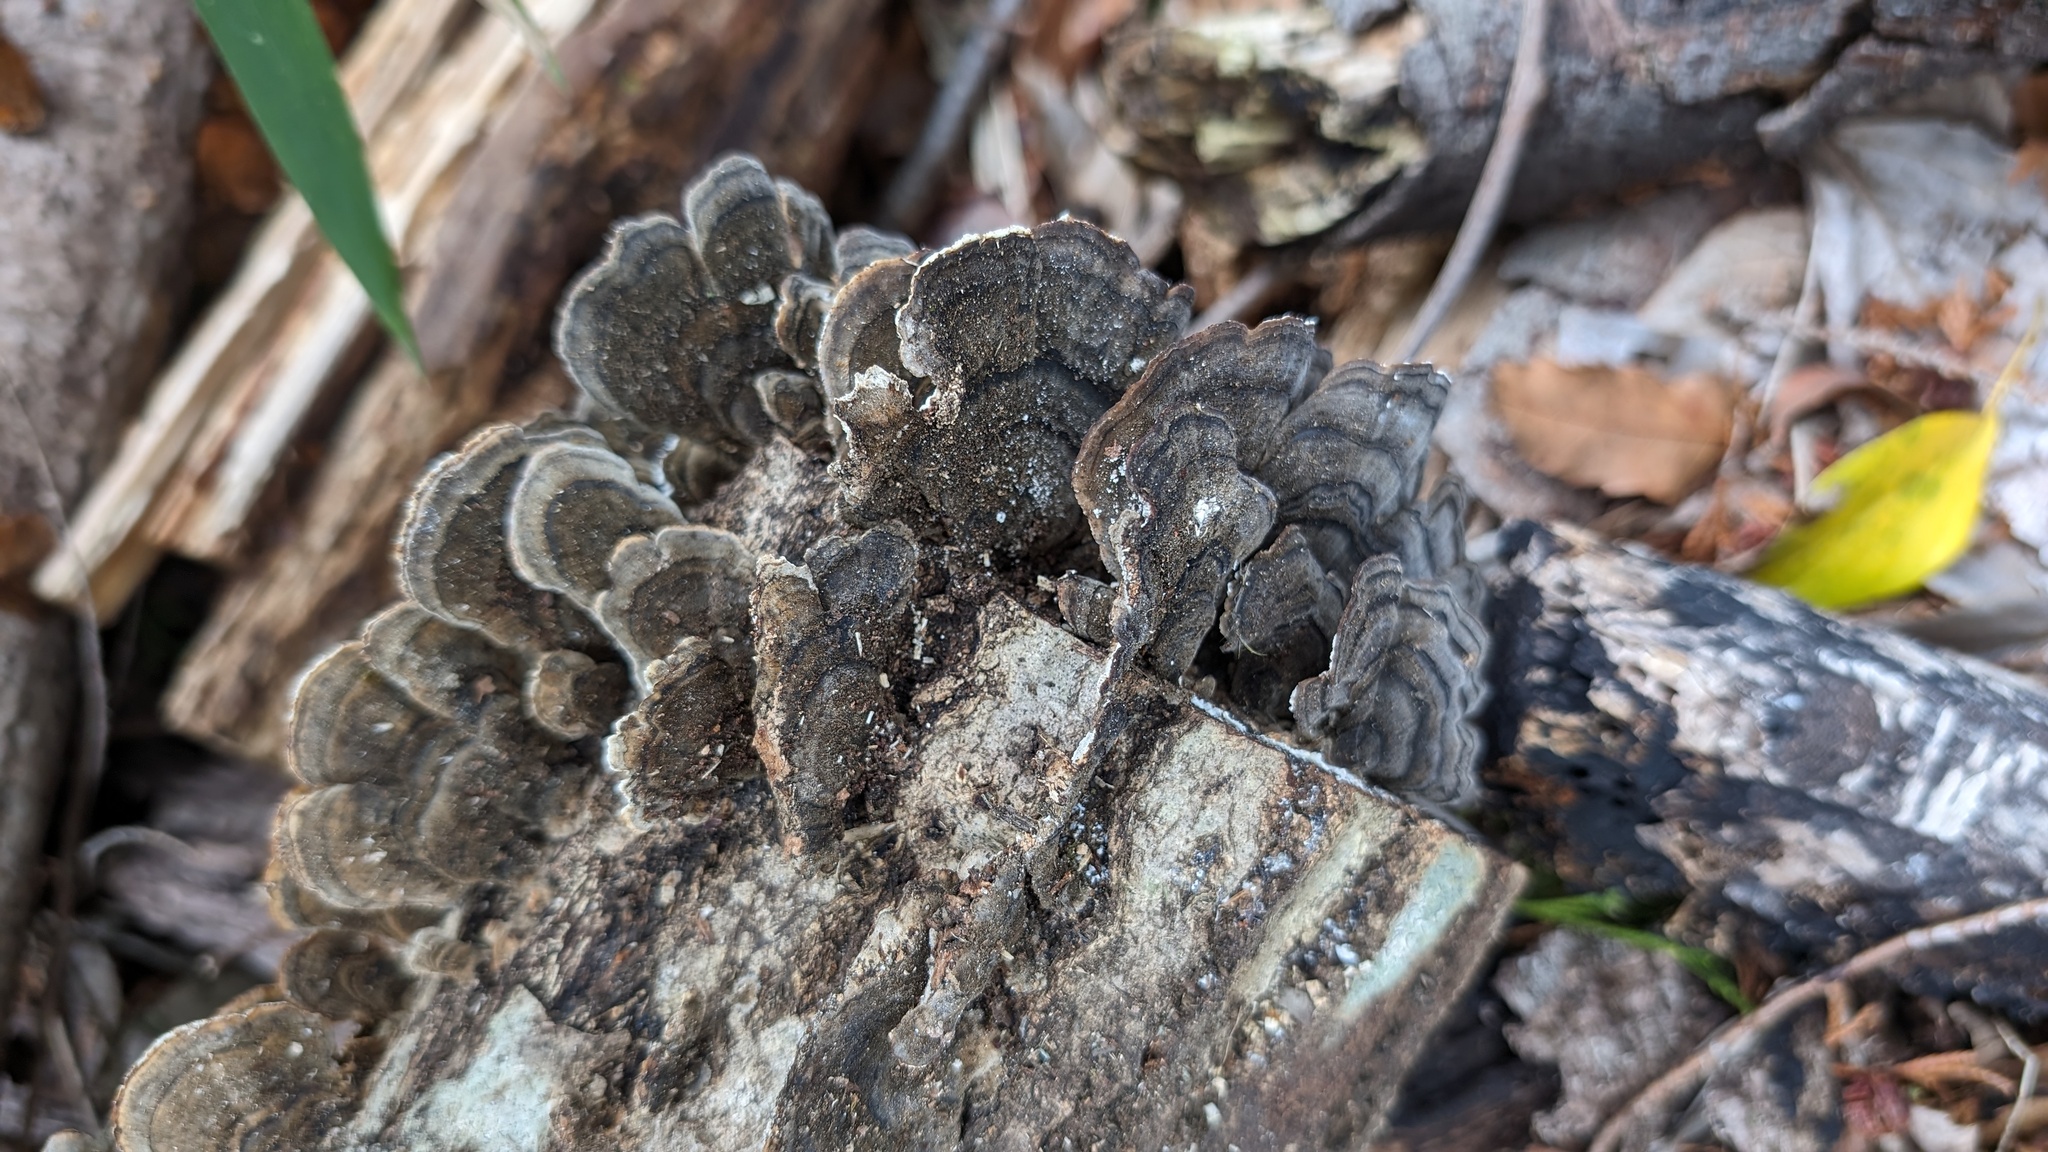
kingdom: Fungi
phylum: Basidiomycota
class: Agaricomycetes
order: Polyporales
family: Polyporaceae
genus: Trametes
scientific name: Trametes versicolor
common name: Turkeytail
